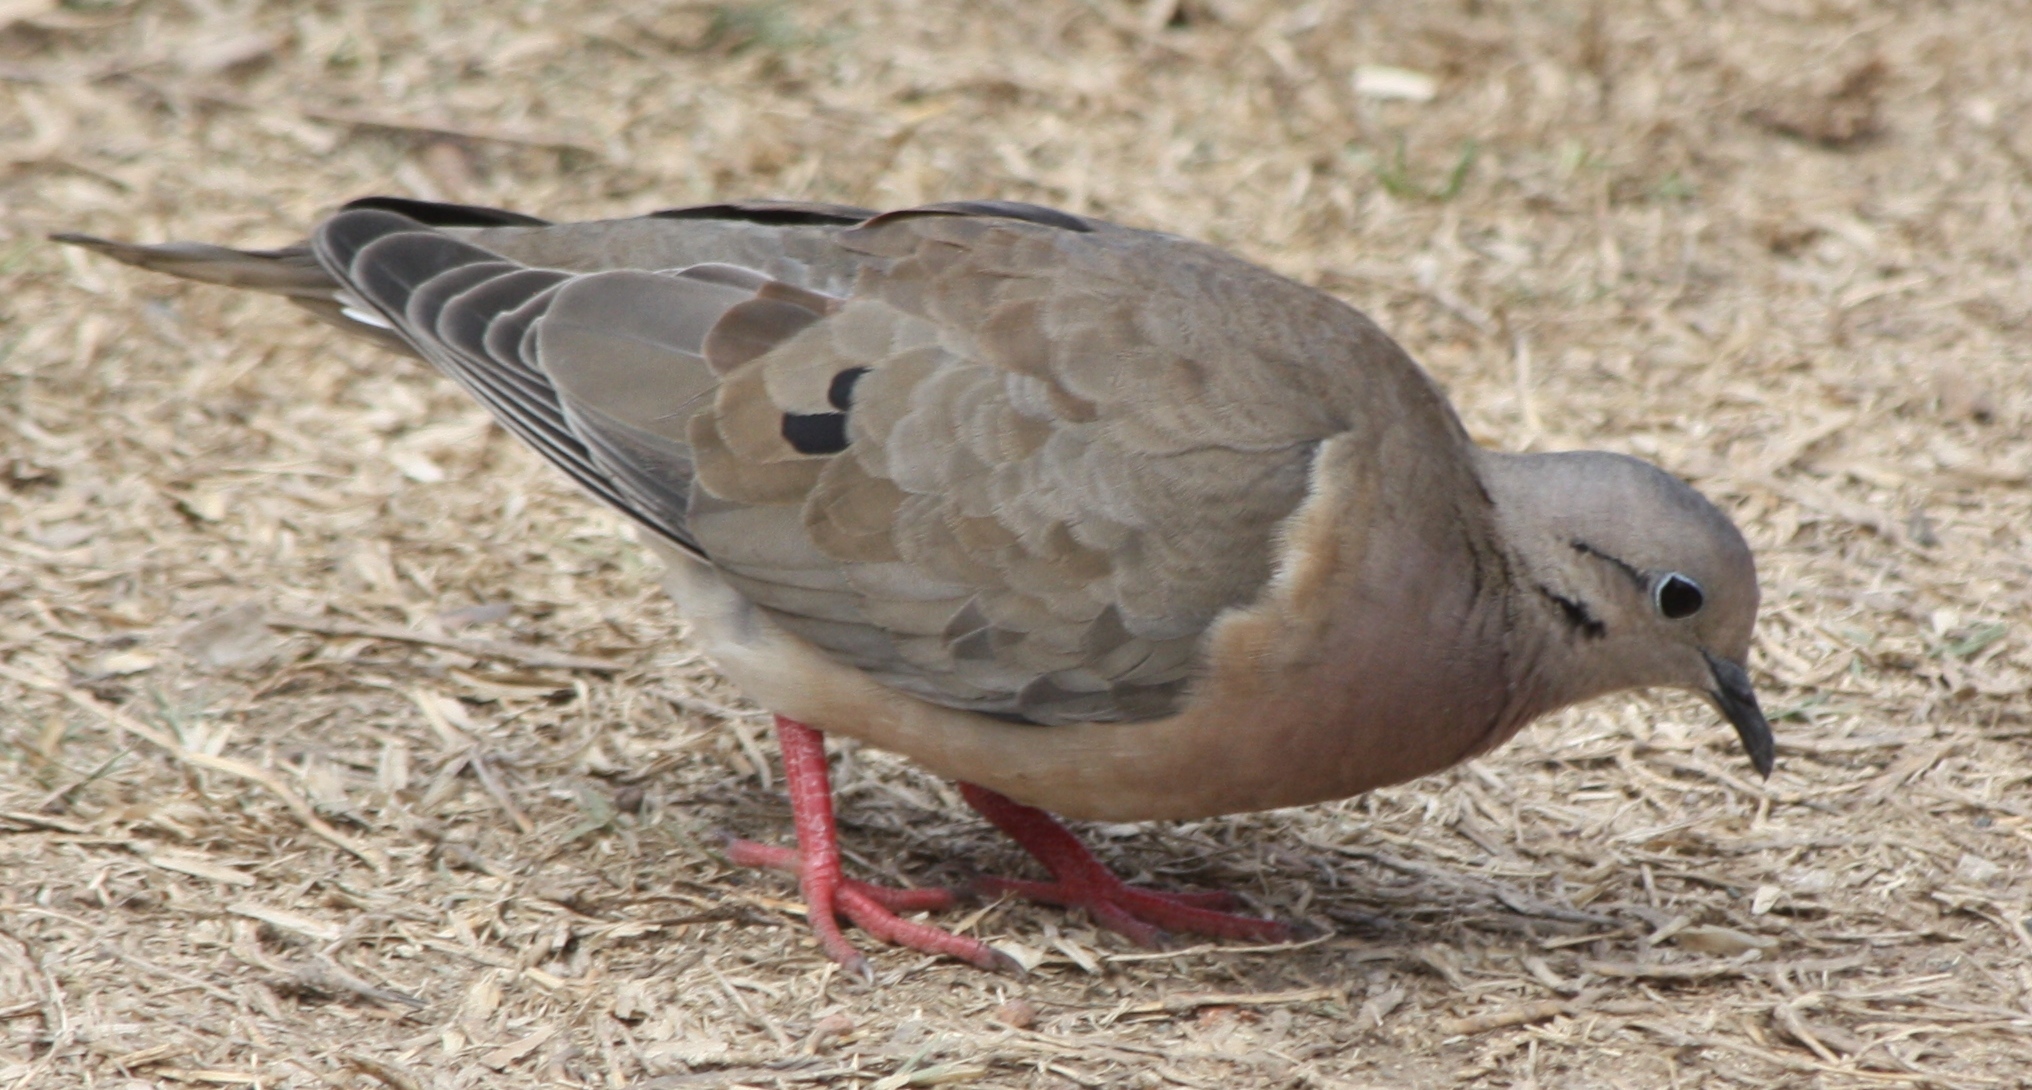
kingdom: Animalia
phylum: Chordata
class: Aves
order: Columbiformes
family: Columbidae
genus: Zenaida
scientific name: Zenaida auriculata
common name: Eared dove
